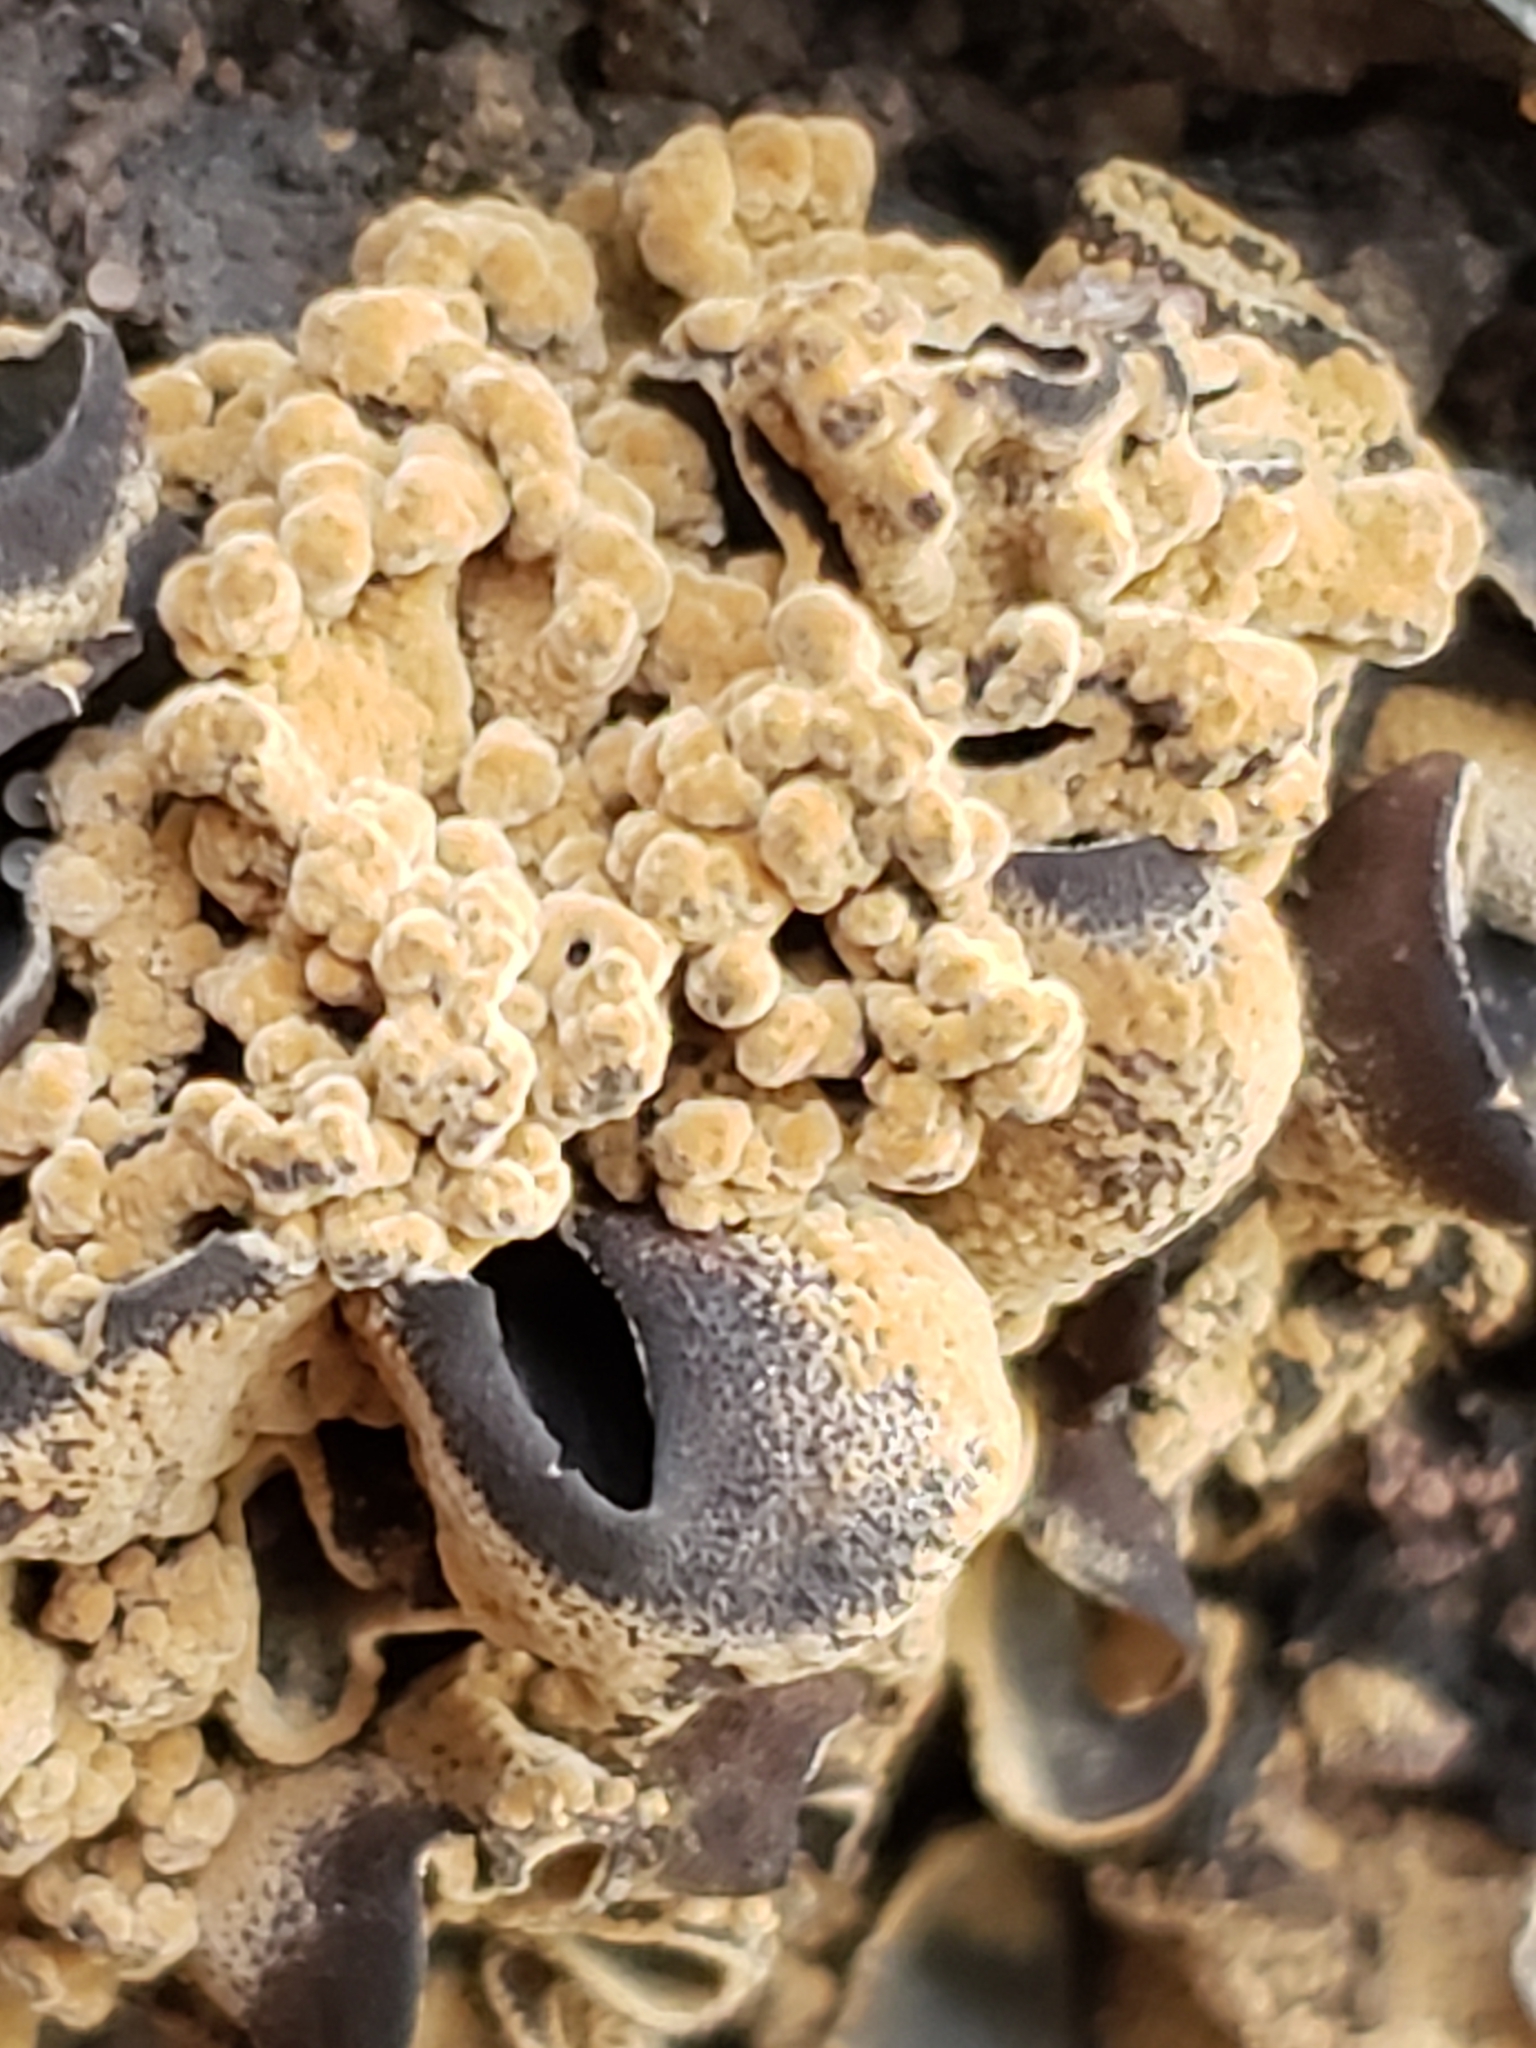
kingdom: Fungi
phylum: Ascomycota
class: Leotiomycetes
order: Helotiales
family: Cordieritidaceae
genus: Diplocarpa
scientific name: Diplocarpa irregularis
